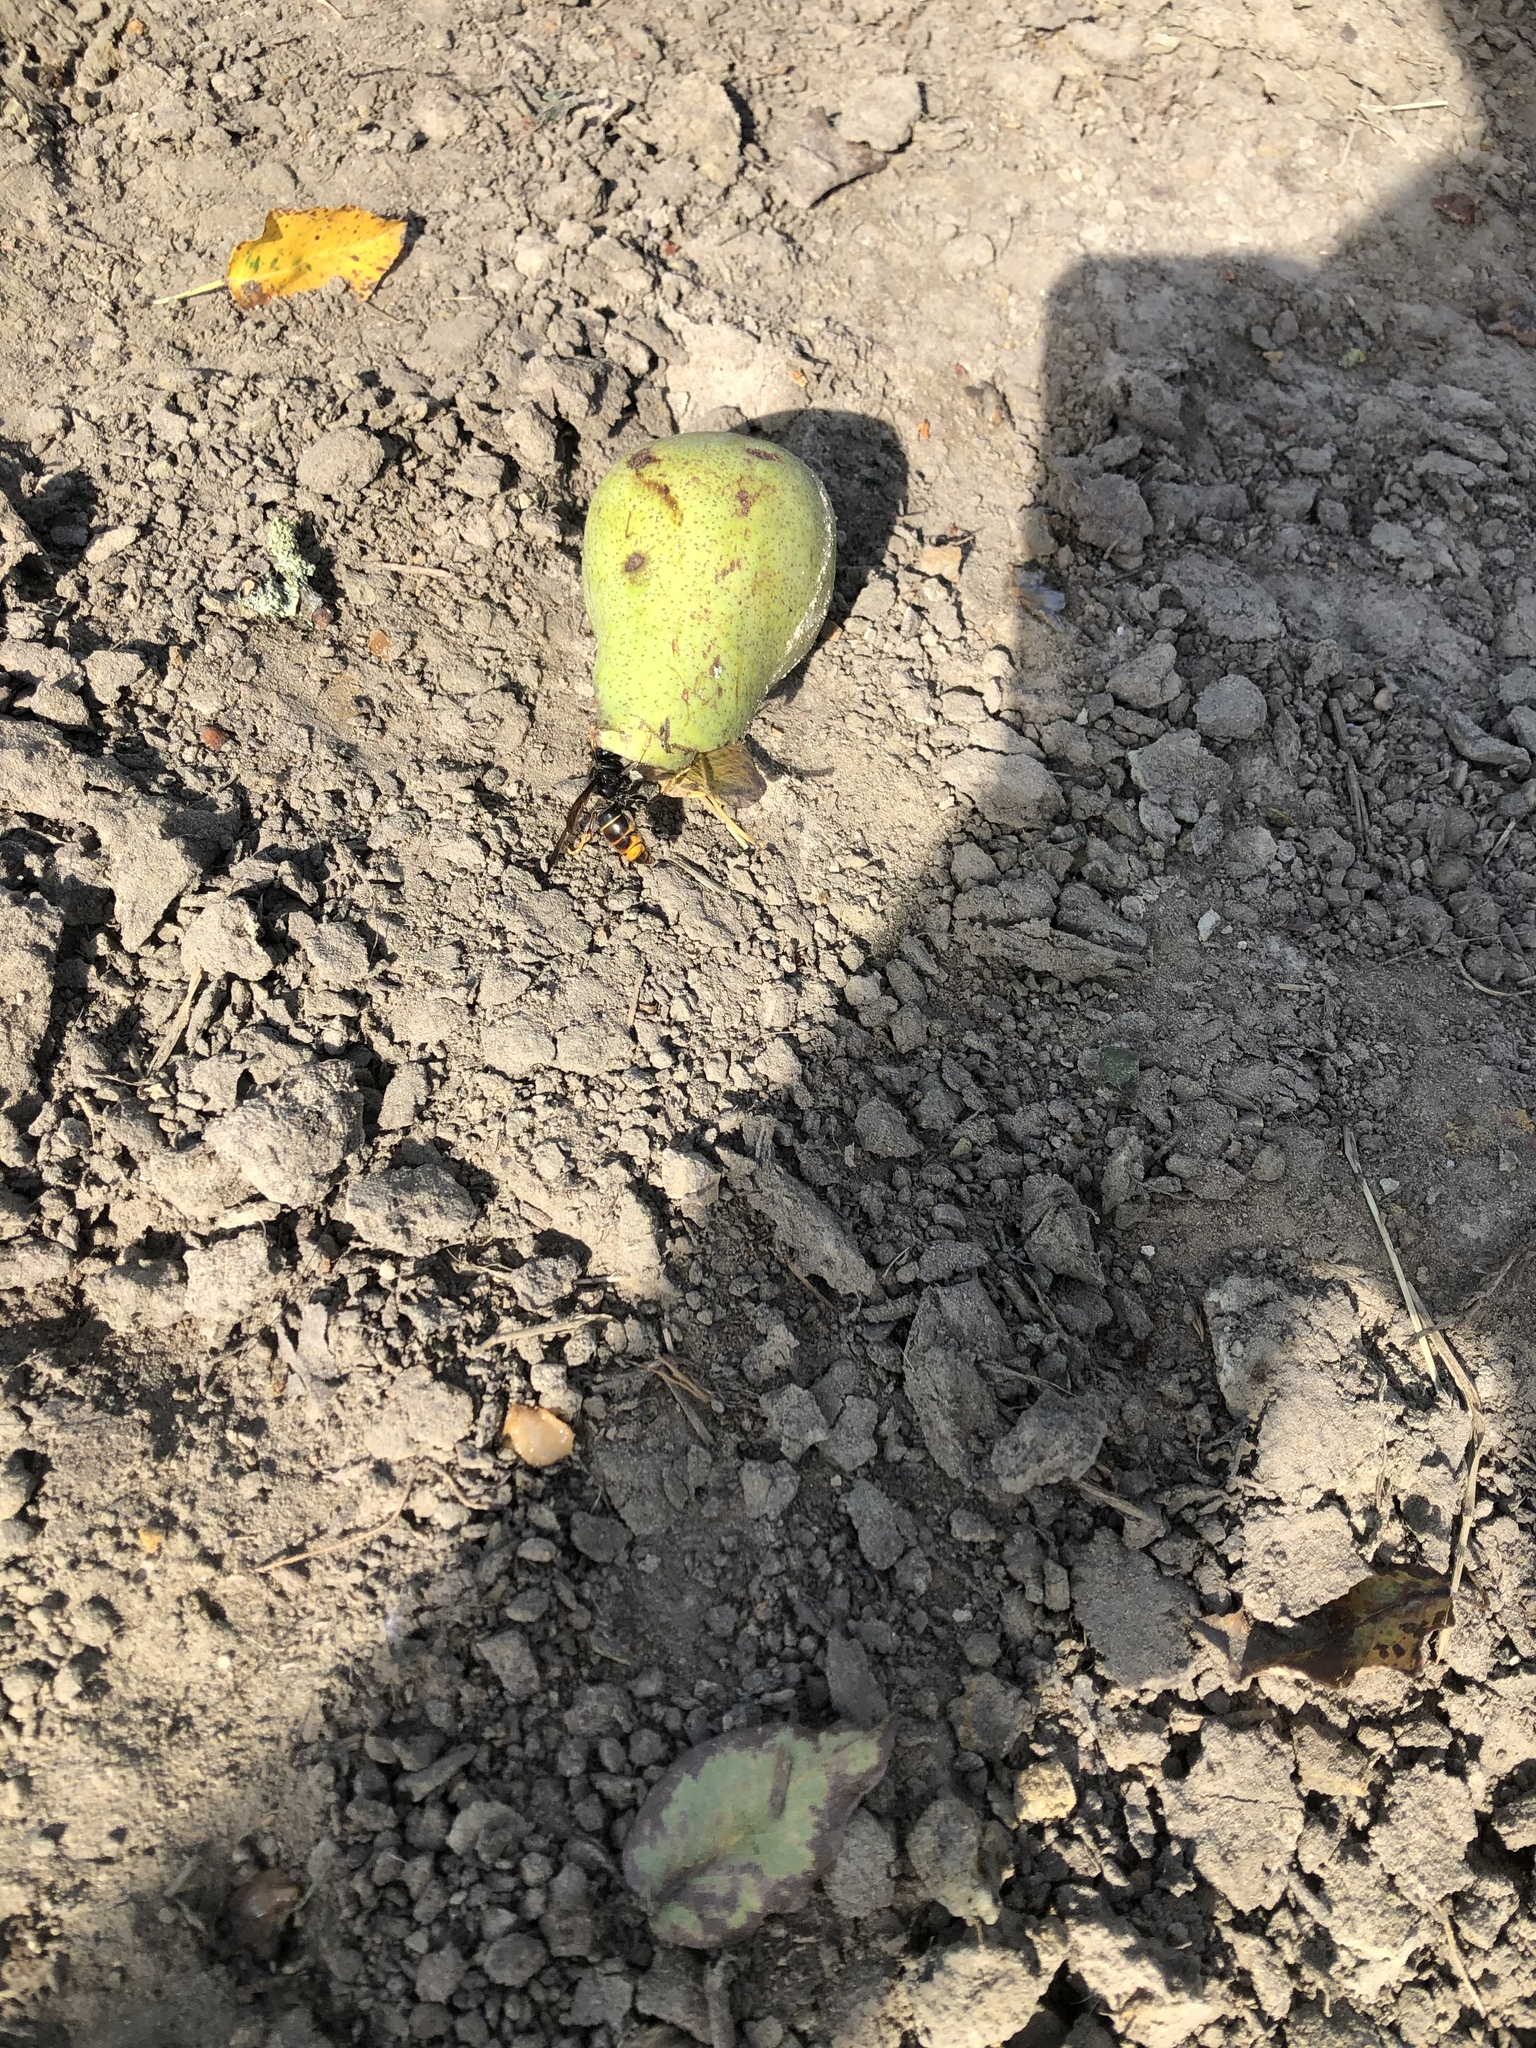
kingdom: Animalia
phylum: Arthropoda
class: Insecta
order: Hymenoptera
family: Vespidae
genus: Vespa
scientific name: Vespa velutina
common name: Asian hornet
